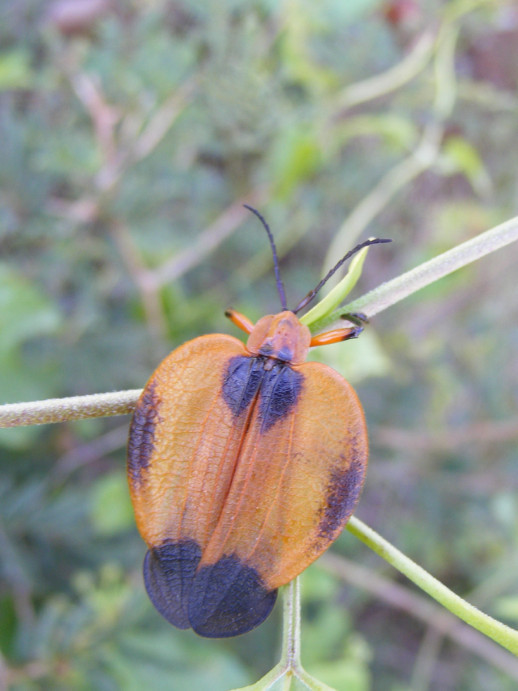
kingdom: Animalia
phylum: Arthropoda
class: Insecta
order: Coleoptera
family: Lycidae
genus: Lycus
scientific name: Lycus
